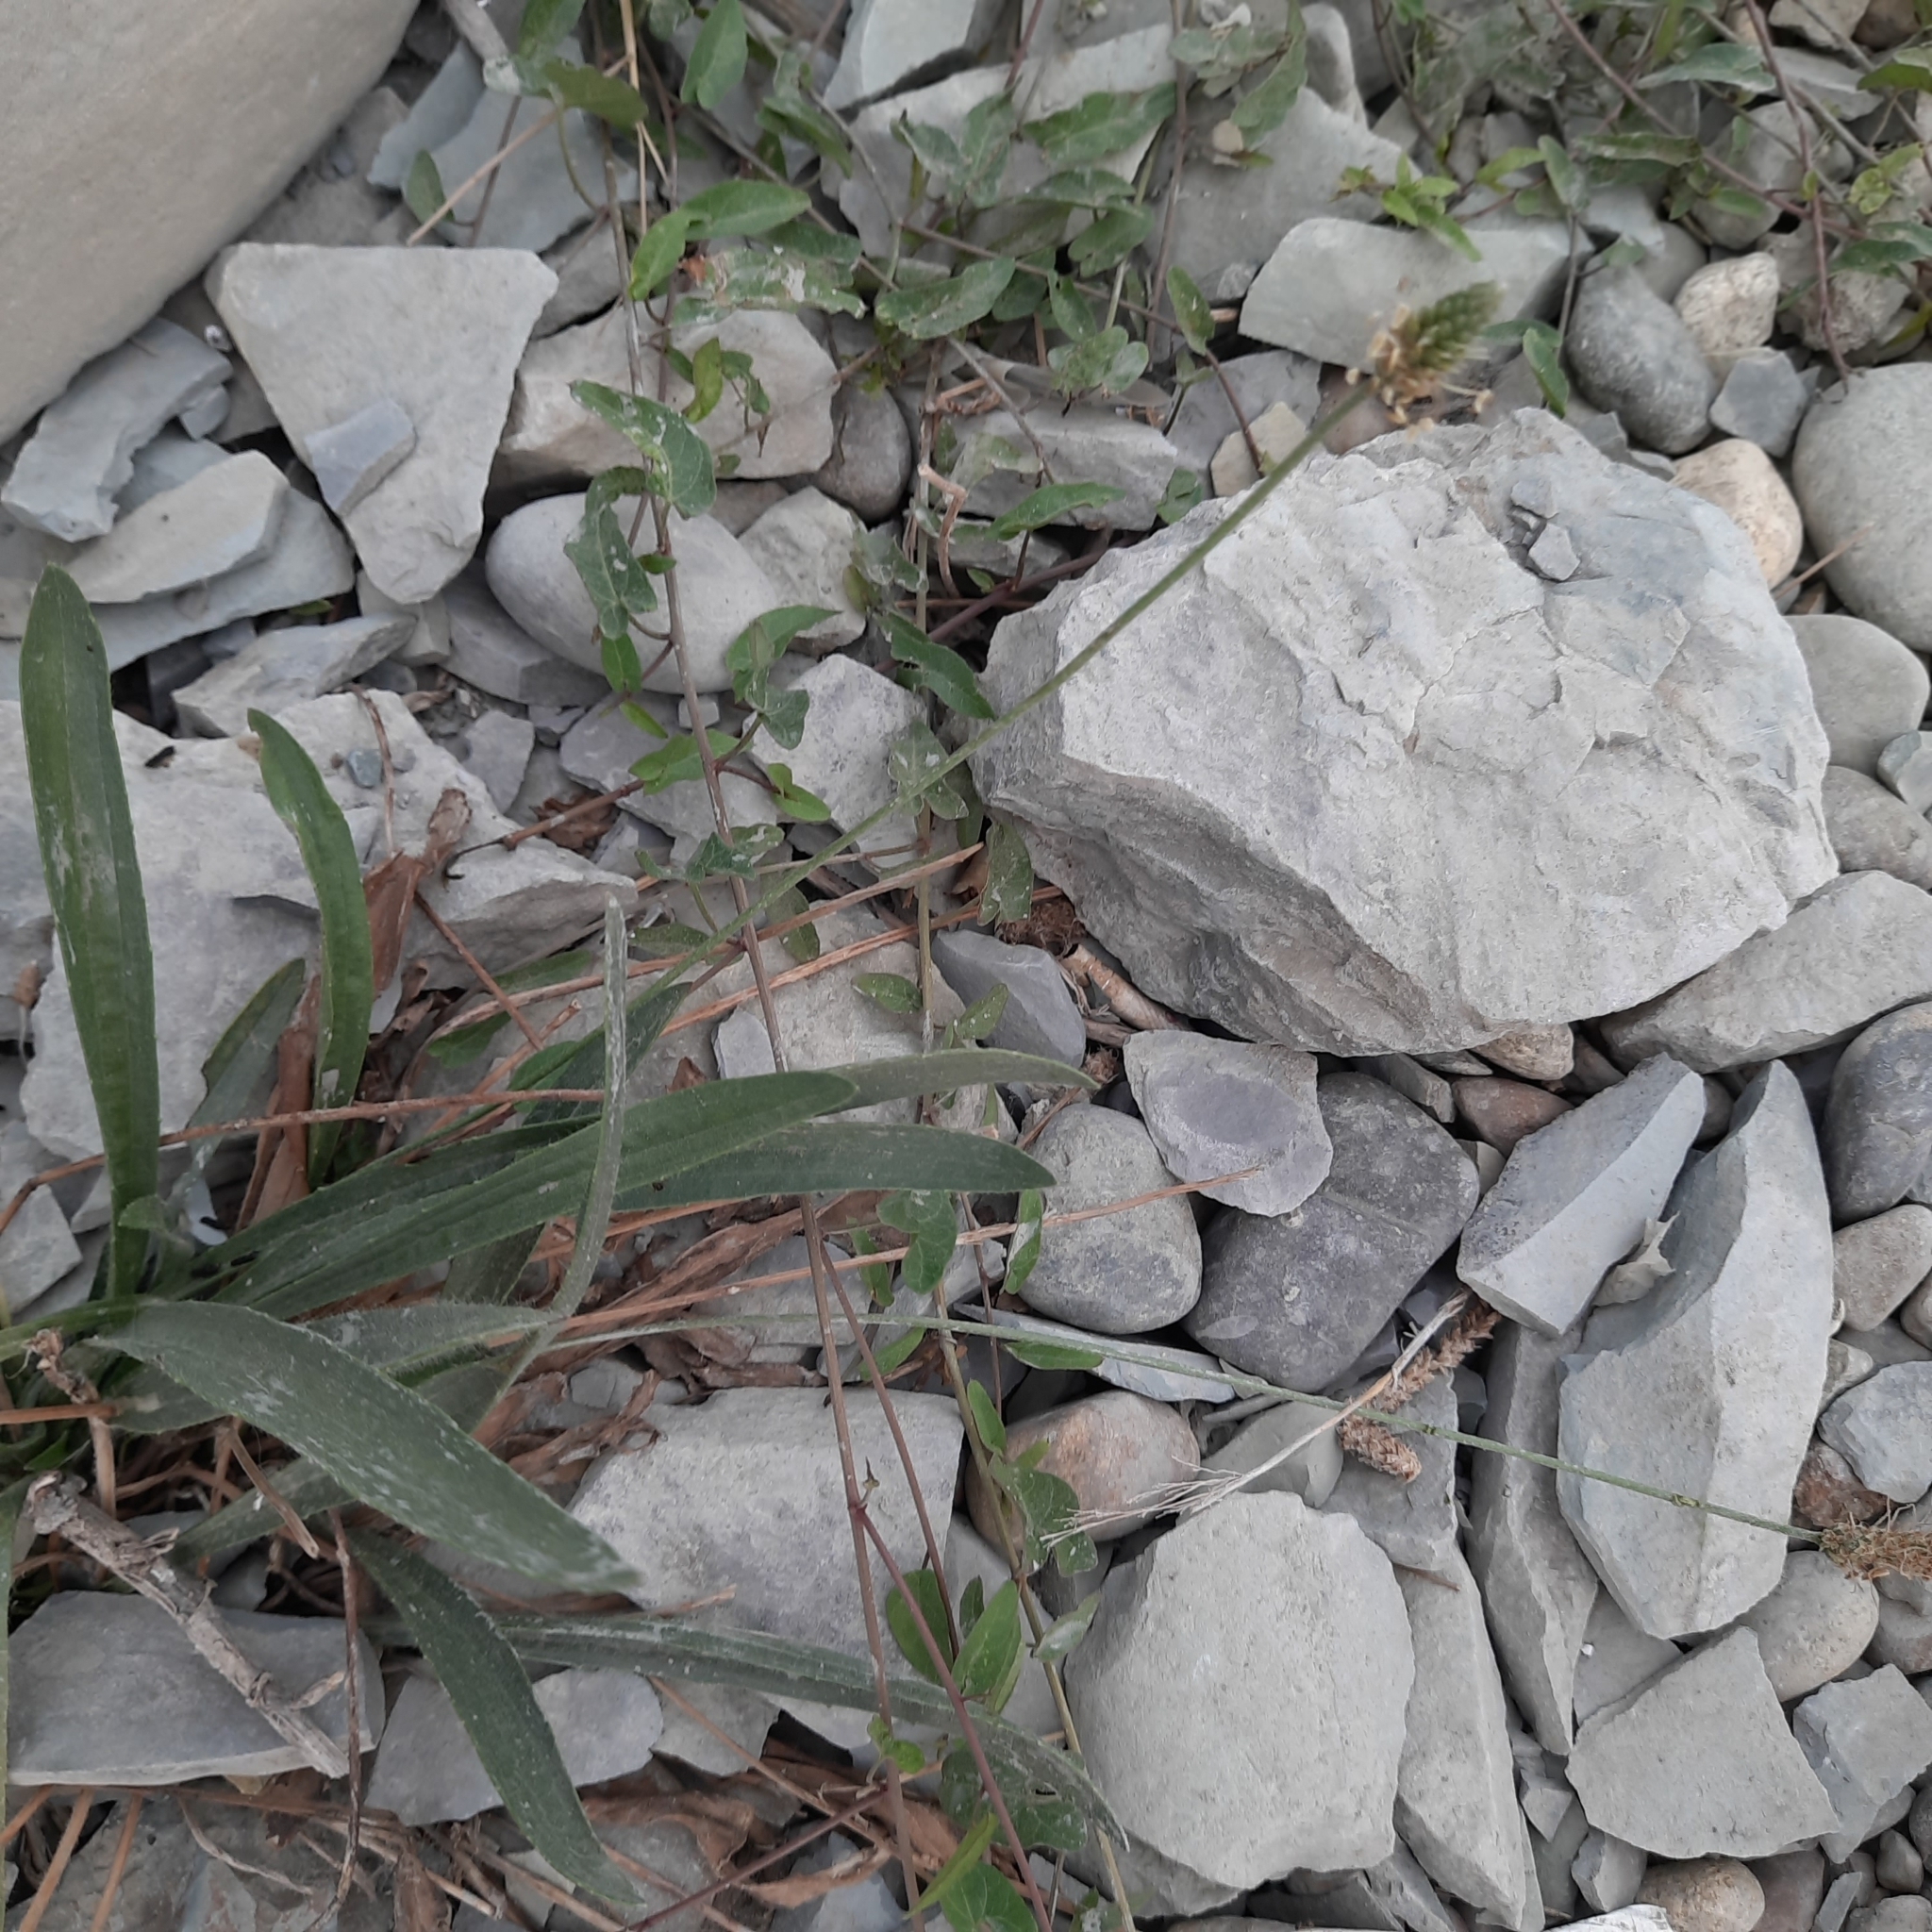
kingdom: Plantae
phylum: Tracheophyta
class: Magnoliopsida
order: Lamiales
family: Plantaginaceae
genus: Plantago
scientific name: Plantago lanceolata
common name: Ribwort plantain
